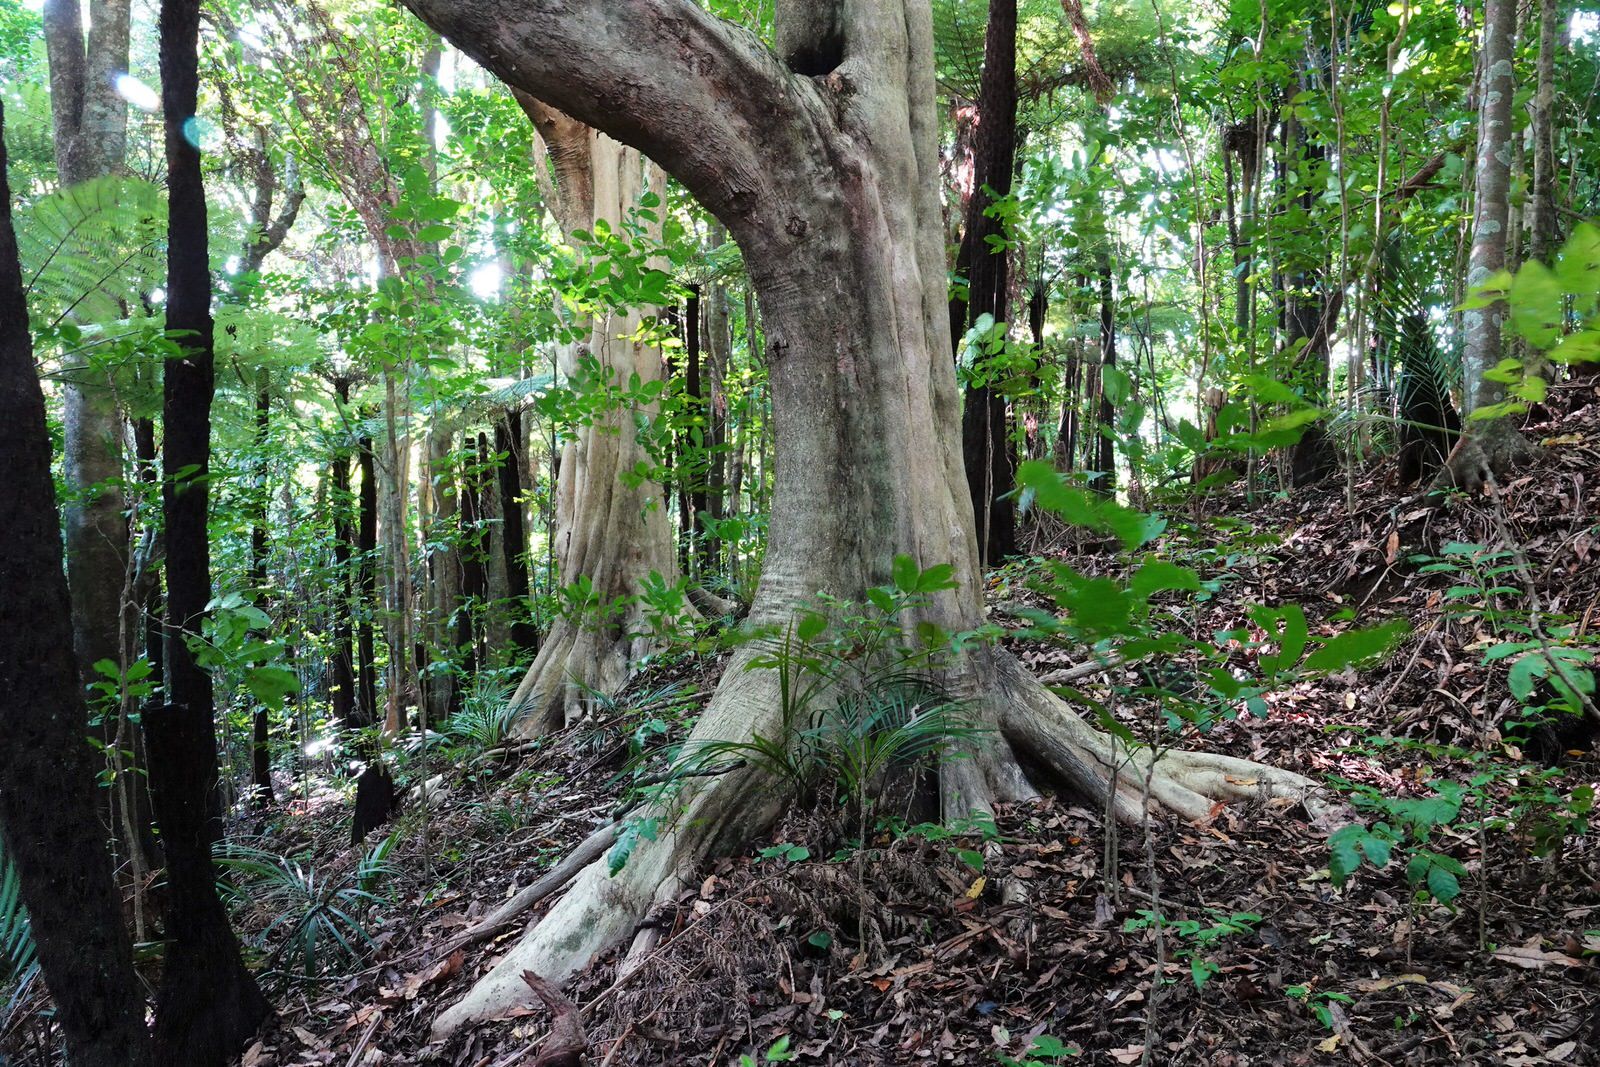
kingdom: Plantae
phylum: Tracheophyta
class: Magnoliopsida
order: Lamiales
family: Lamiaceae
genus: Vitex
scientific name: Vitex lucens
